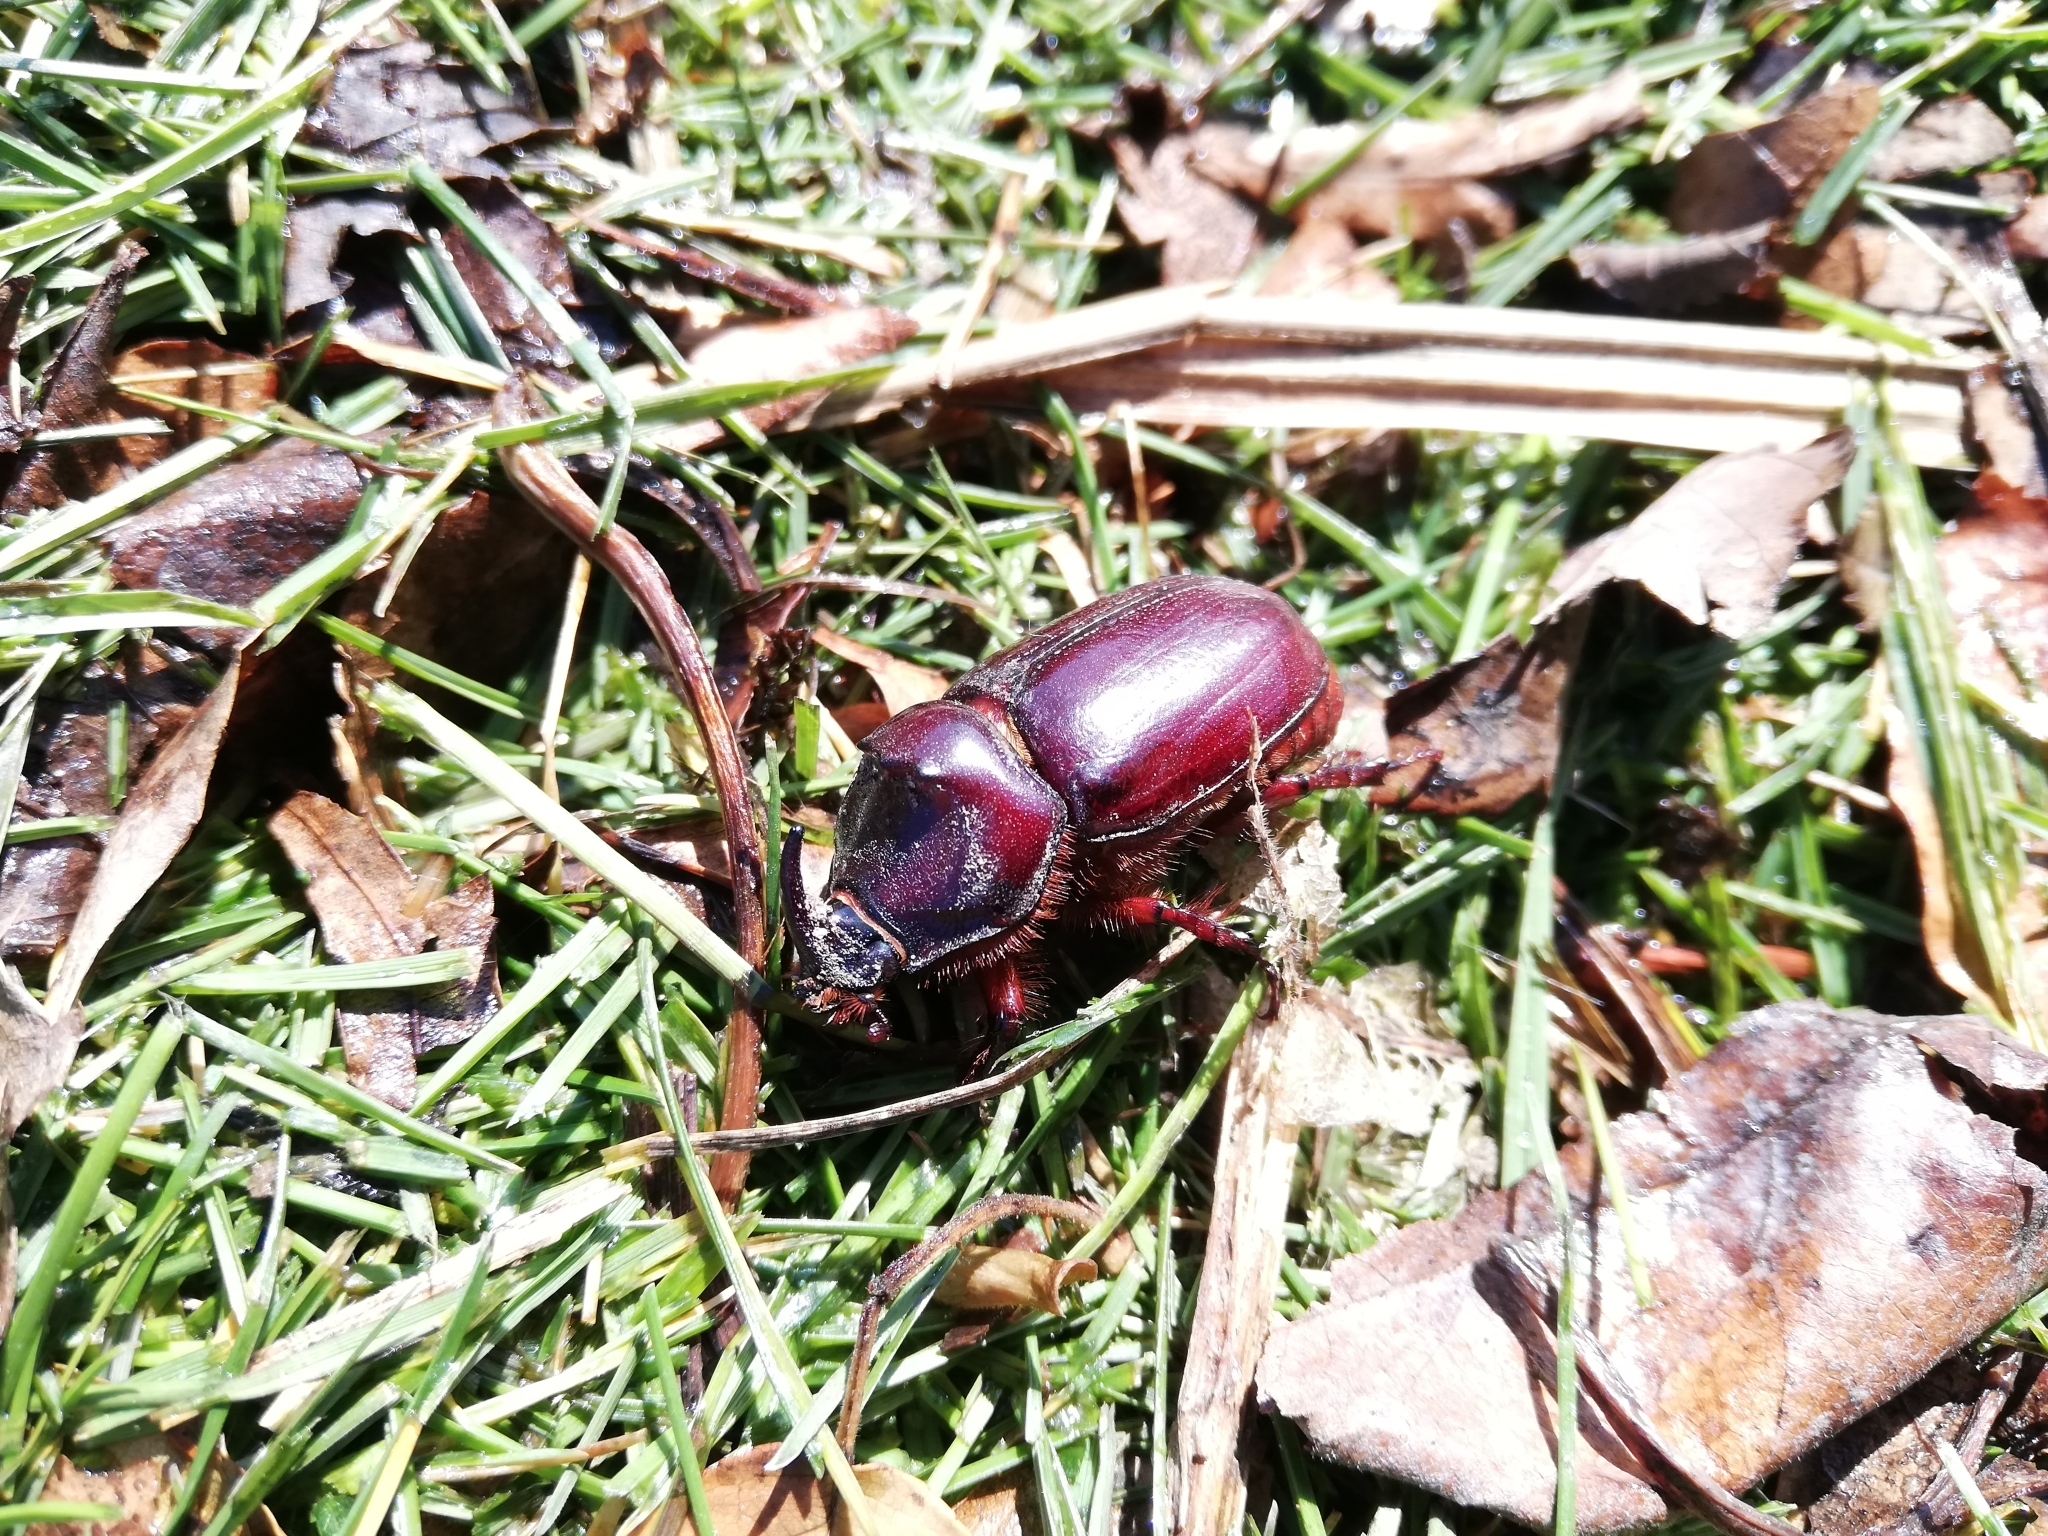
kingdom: Animalia
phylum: Arthropoda
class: Insecta
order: Coleoptera
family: Scarabaeidae
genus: Oryctes
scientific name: Oryctes nasicornis
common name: European rhinoceros beetle
